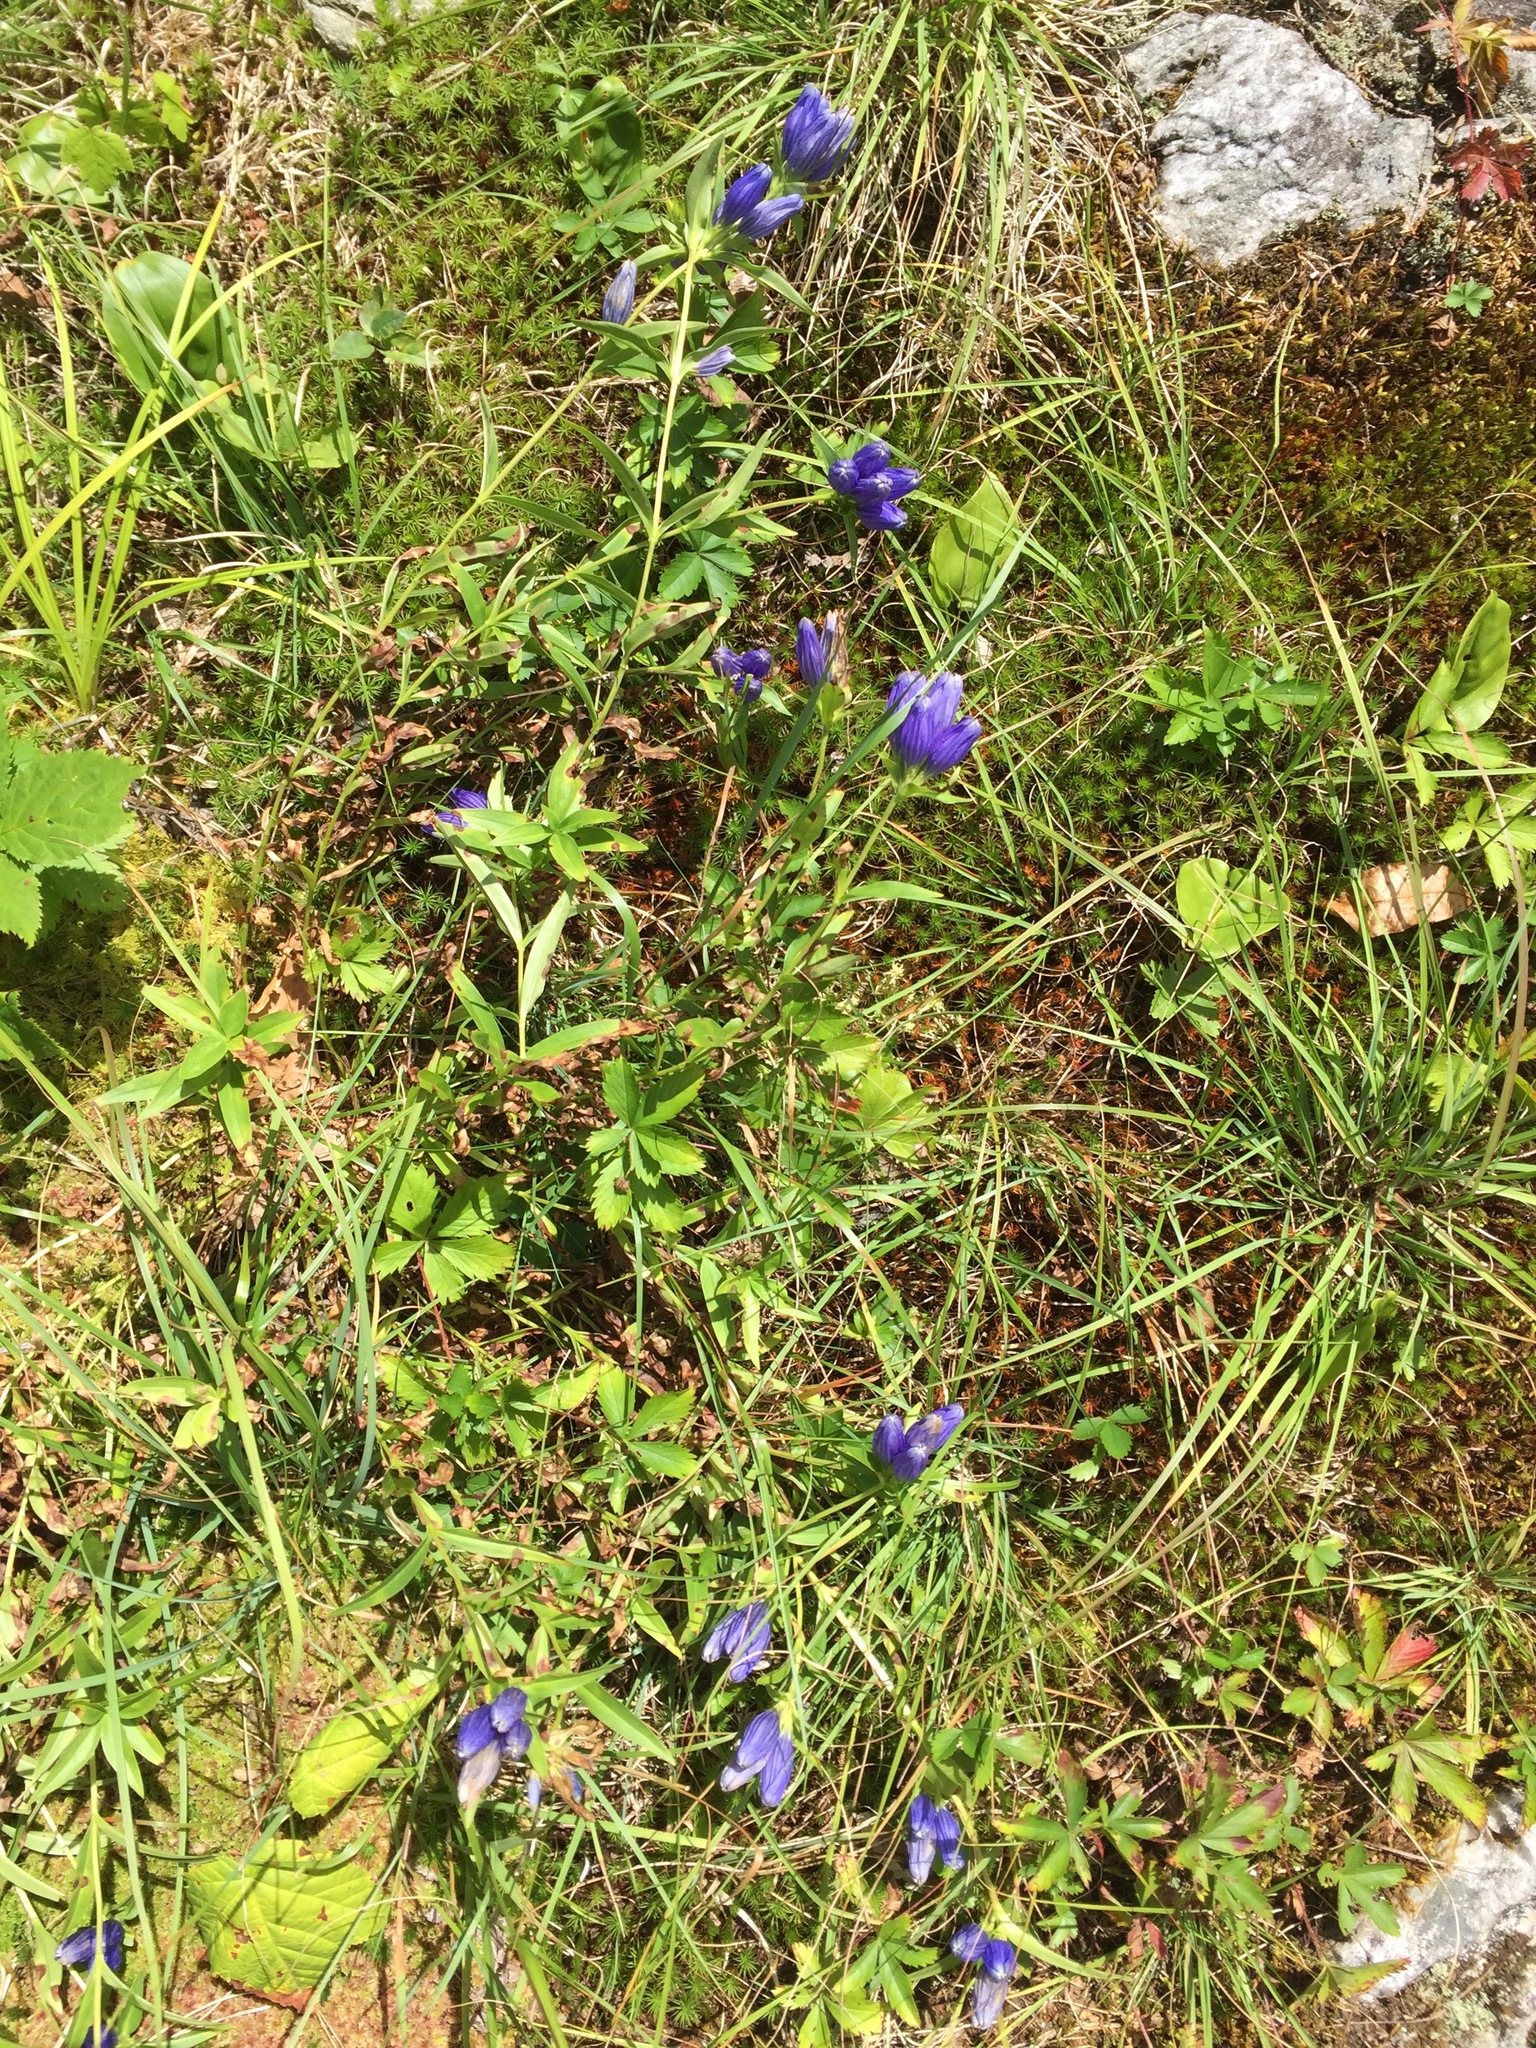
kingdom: Plantae
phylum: Tracheophyta
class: Magnoliopsida
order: Gentianales
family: Gentianaceae
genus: Gentiana
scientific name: Gentiana linearis
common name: Bastard gentian
